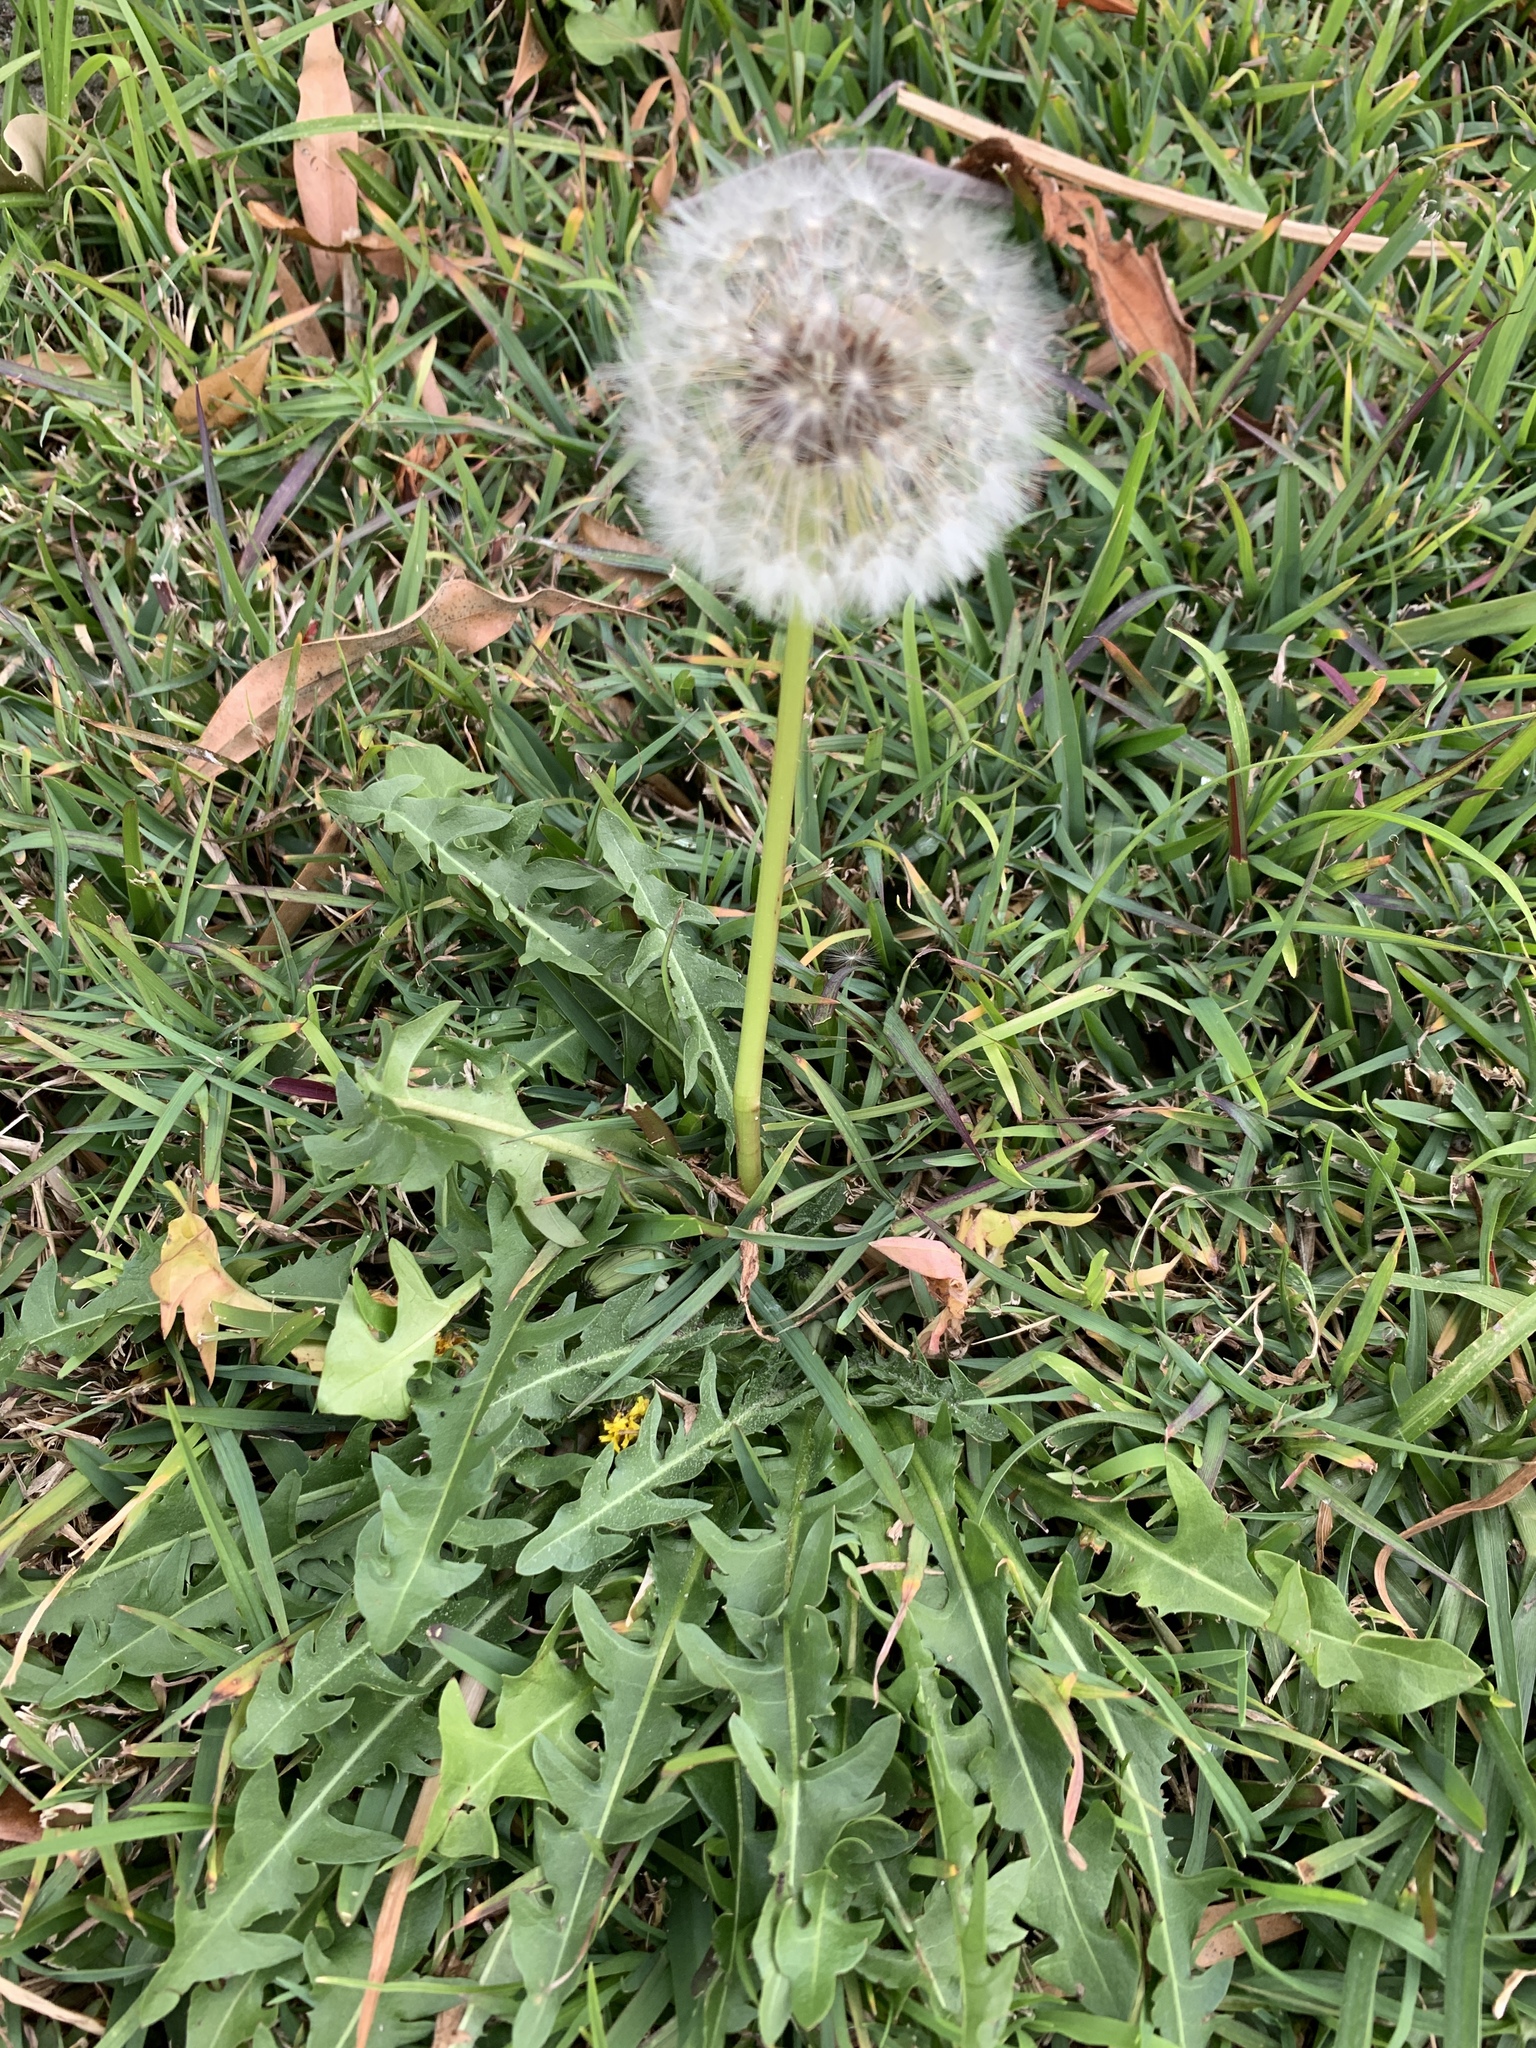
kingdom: Plantae
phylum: Tracheophyta
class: Magnoliopsida
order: Asterales
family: Asteraceae
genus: Taraxacum
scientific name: Taraxacum officinale
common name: Common dandelion
